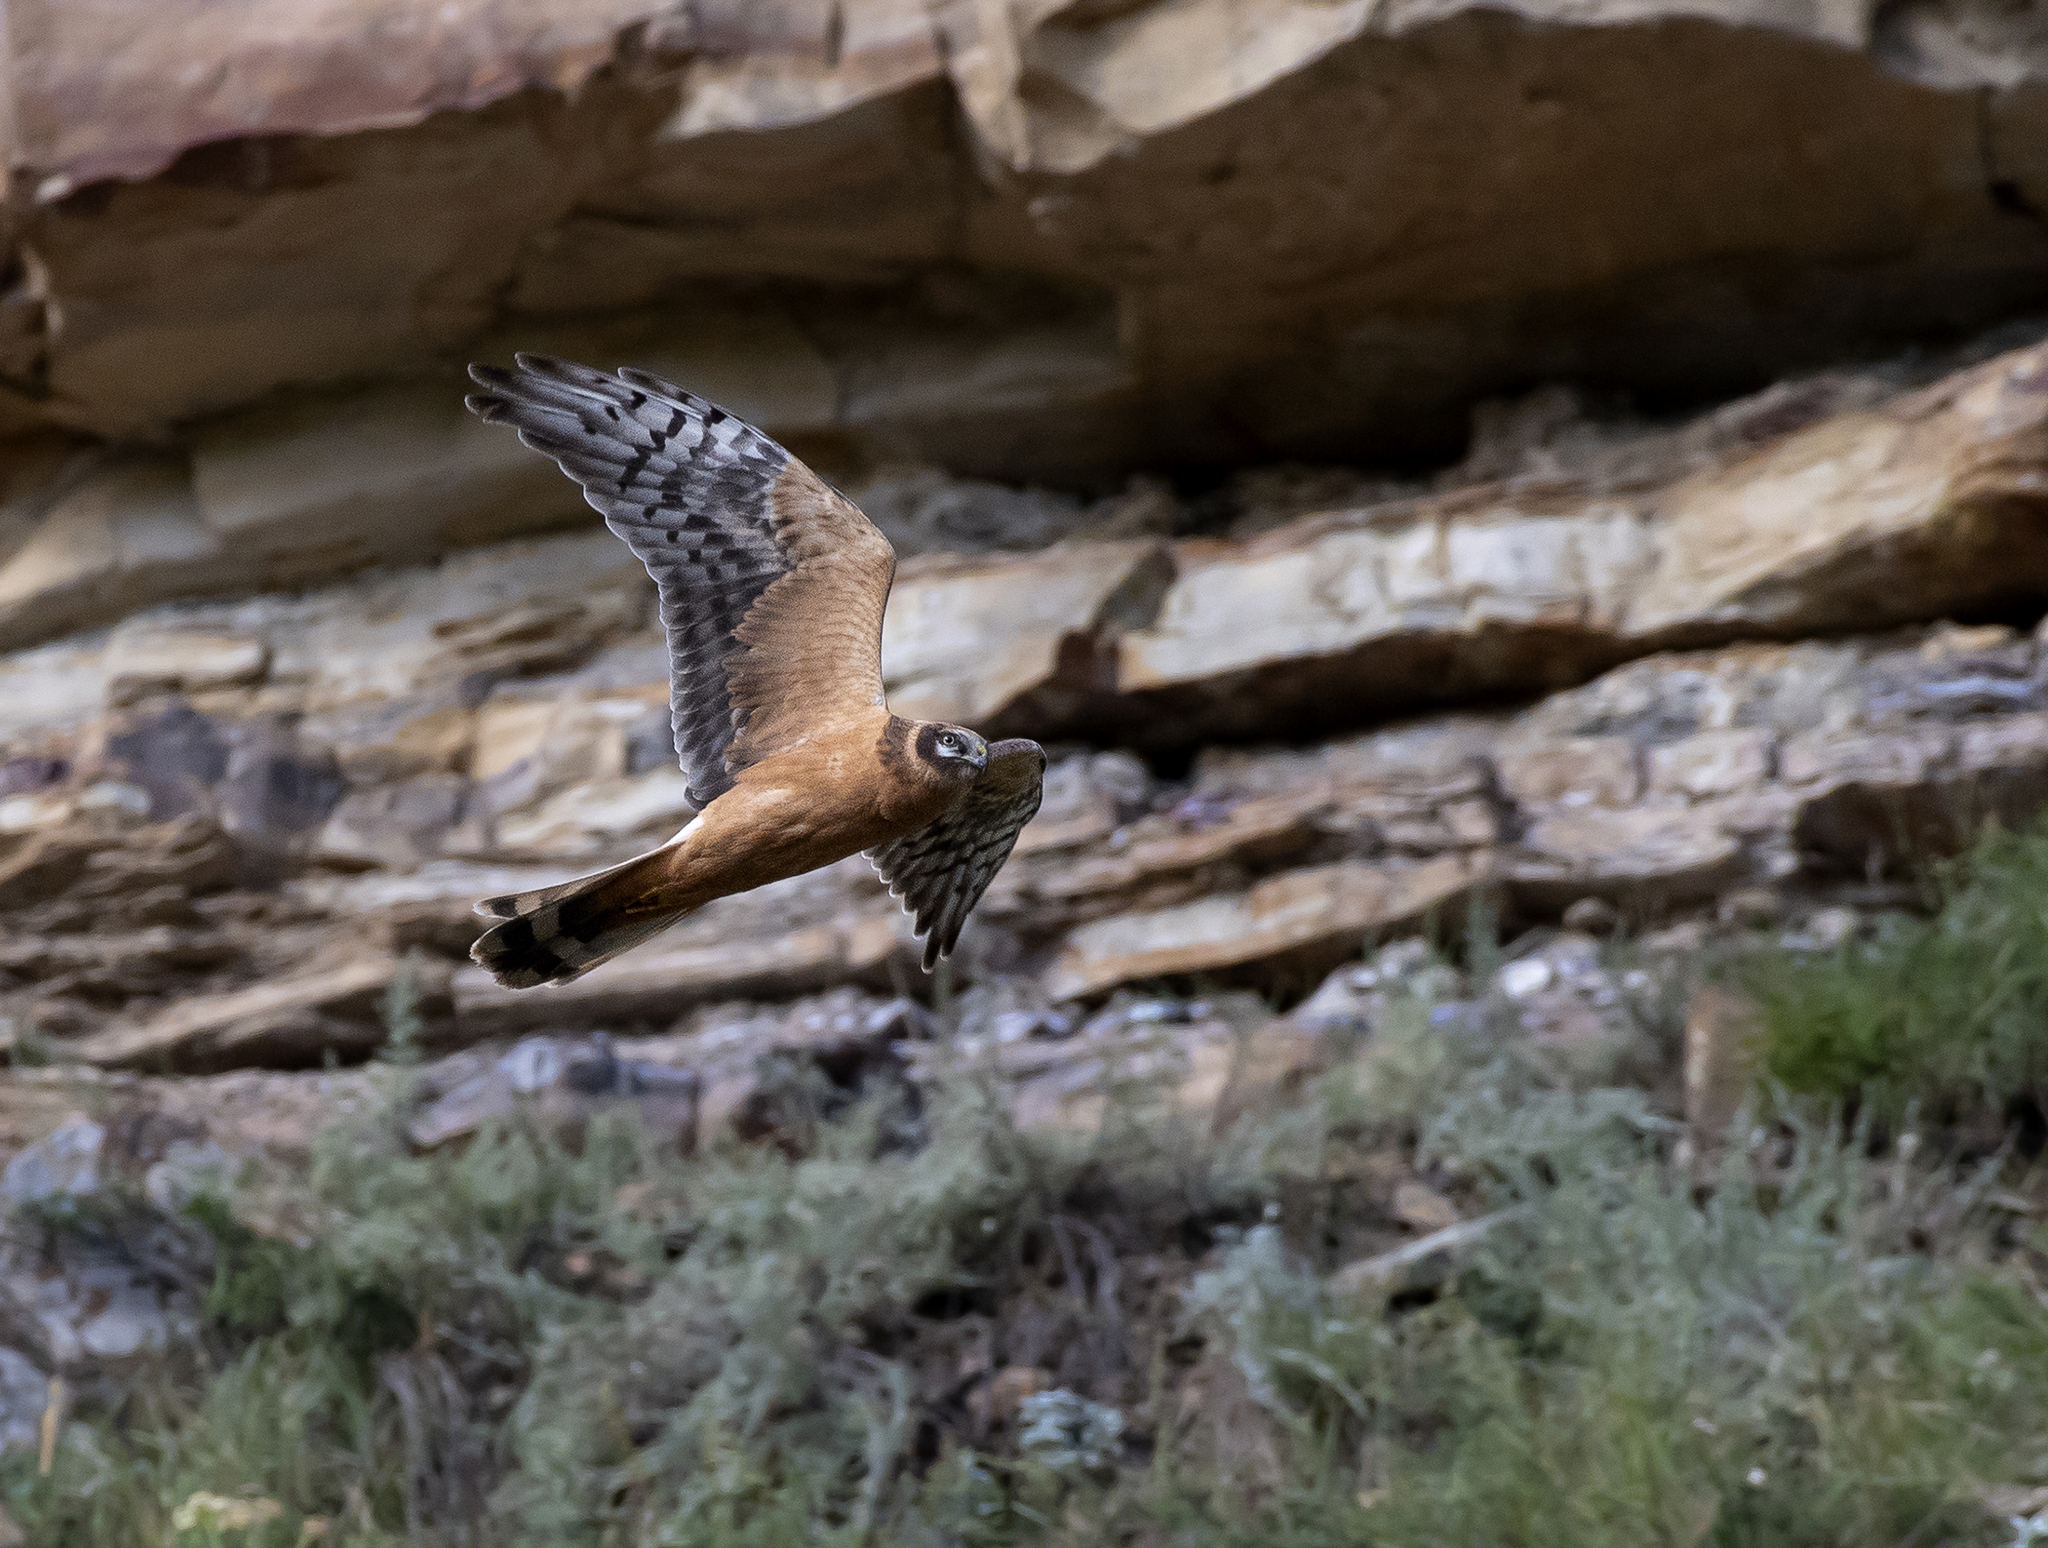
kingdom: Animalia
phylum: Chordata
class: Aves
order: Accipitriformes
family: Accipitridae
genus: Circus
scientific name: Circus macrourus
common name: Pallid harrier
